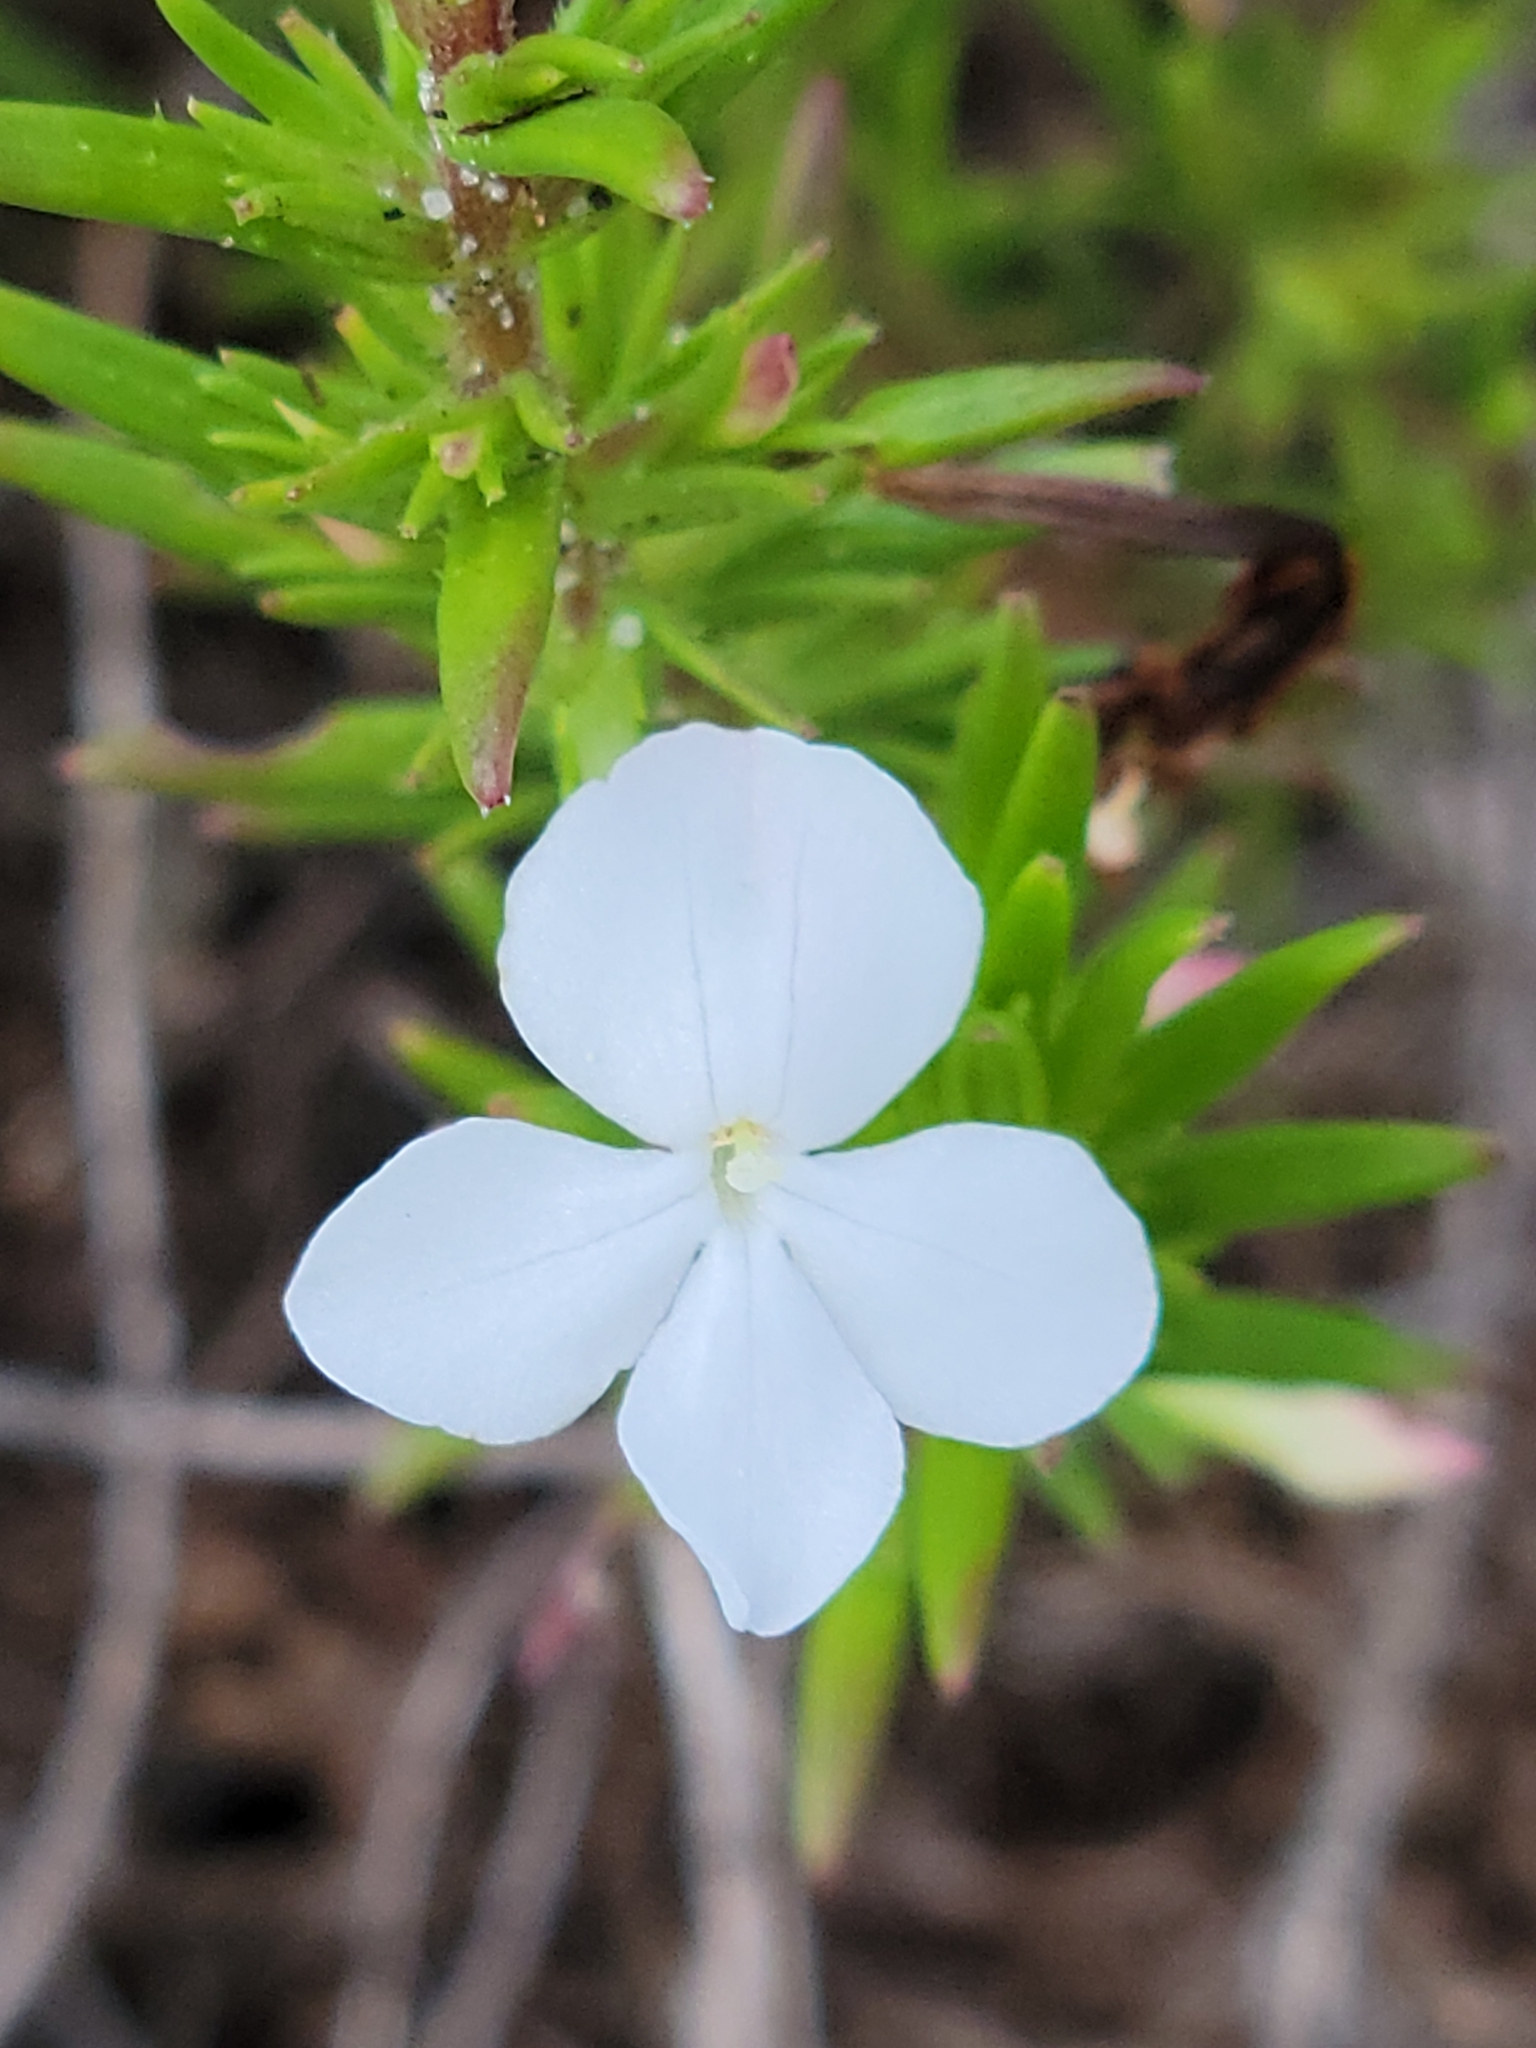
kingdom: Plantae
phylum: Tracheophyta
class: Magnoliopsida
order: Lamiales
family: Plantaginaceae
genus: Gratiola
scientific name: Gratiola hispida
